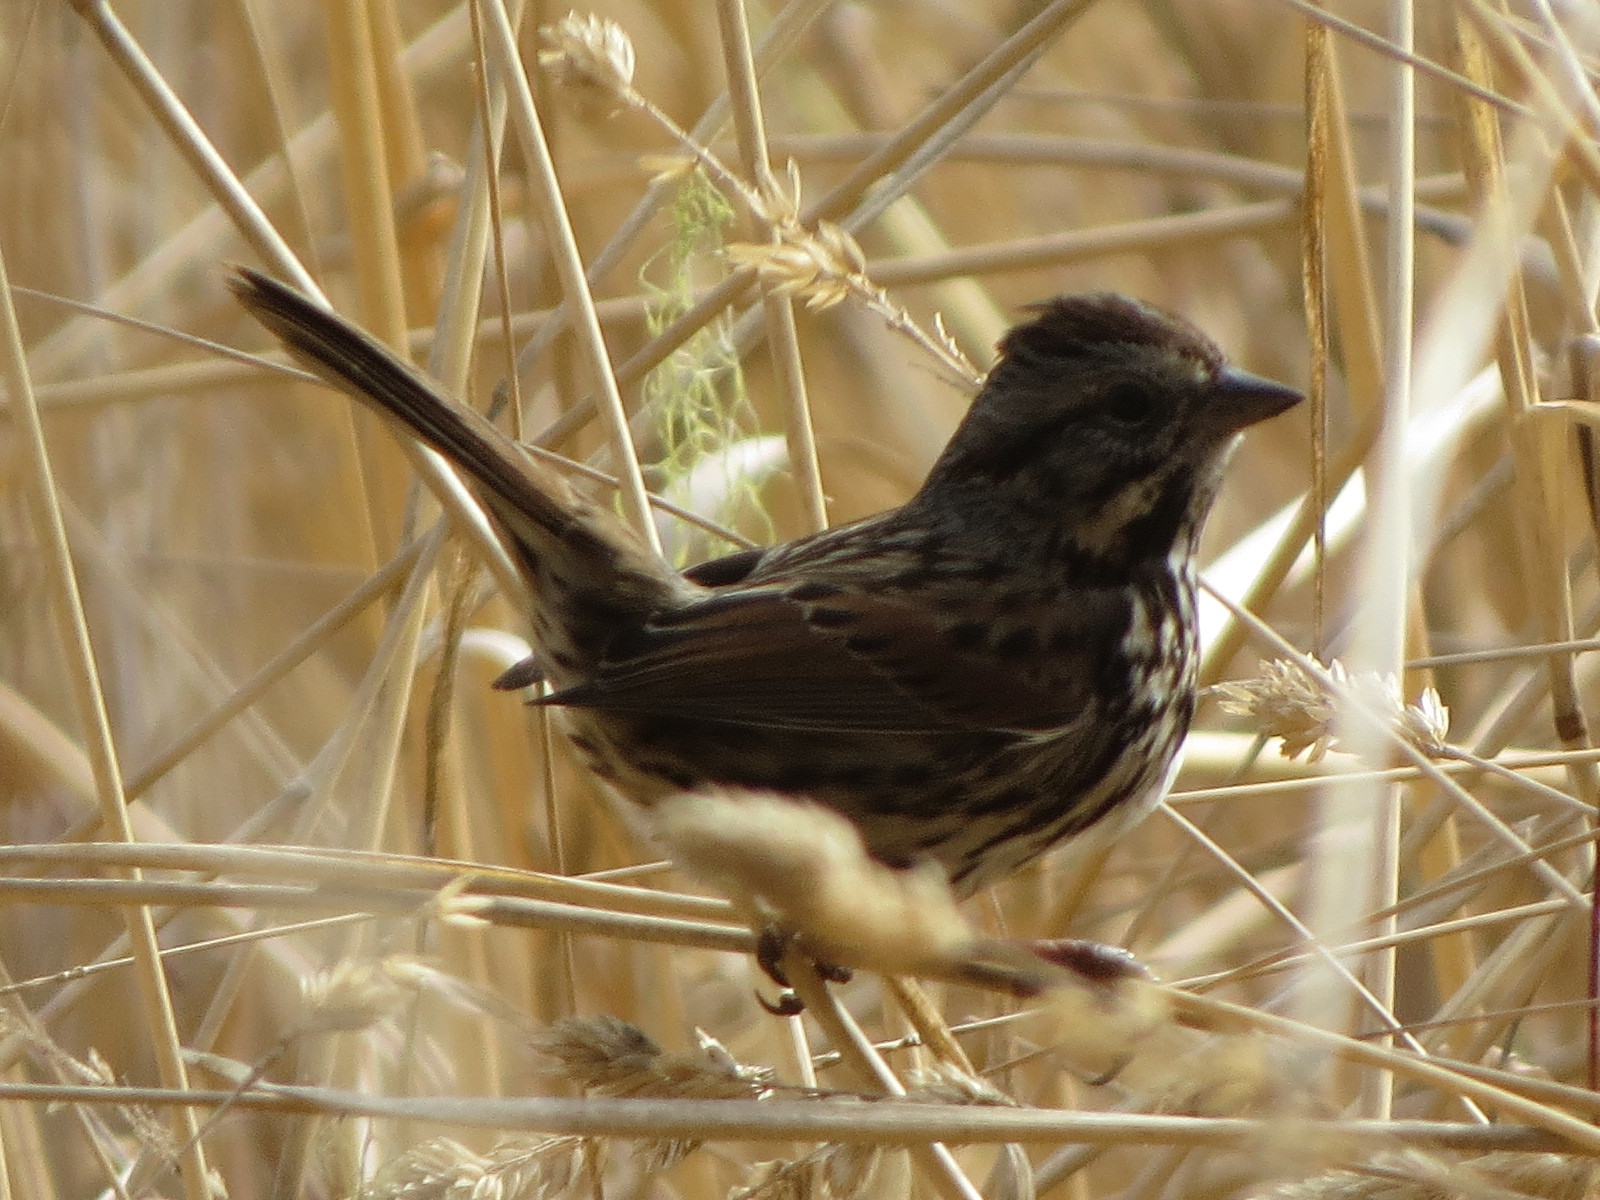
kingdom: Animalia
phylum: Chordata
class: Aves
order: Passeriformes
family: Passerellidae
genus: Melospiza
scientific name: Melospiza melodia
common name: Song sparrow
